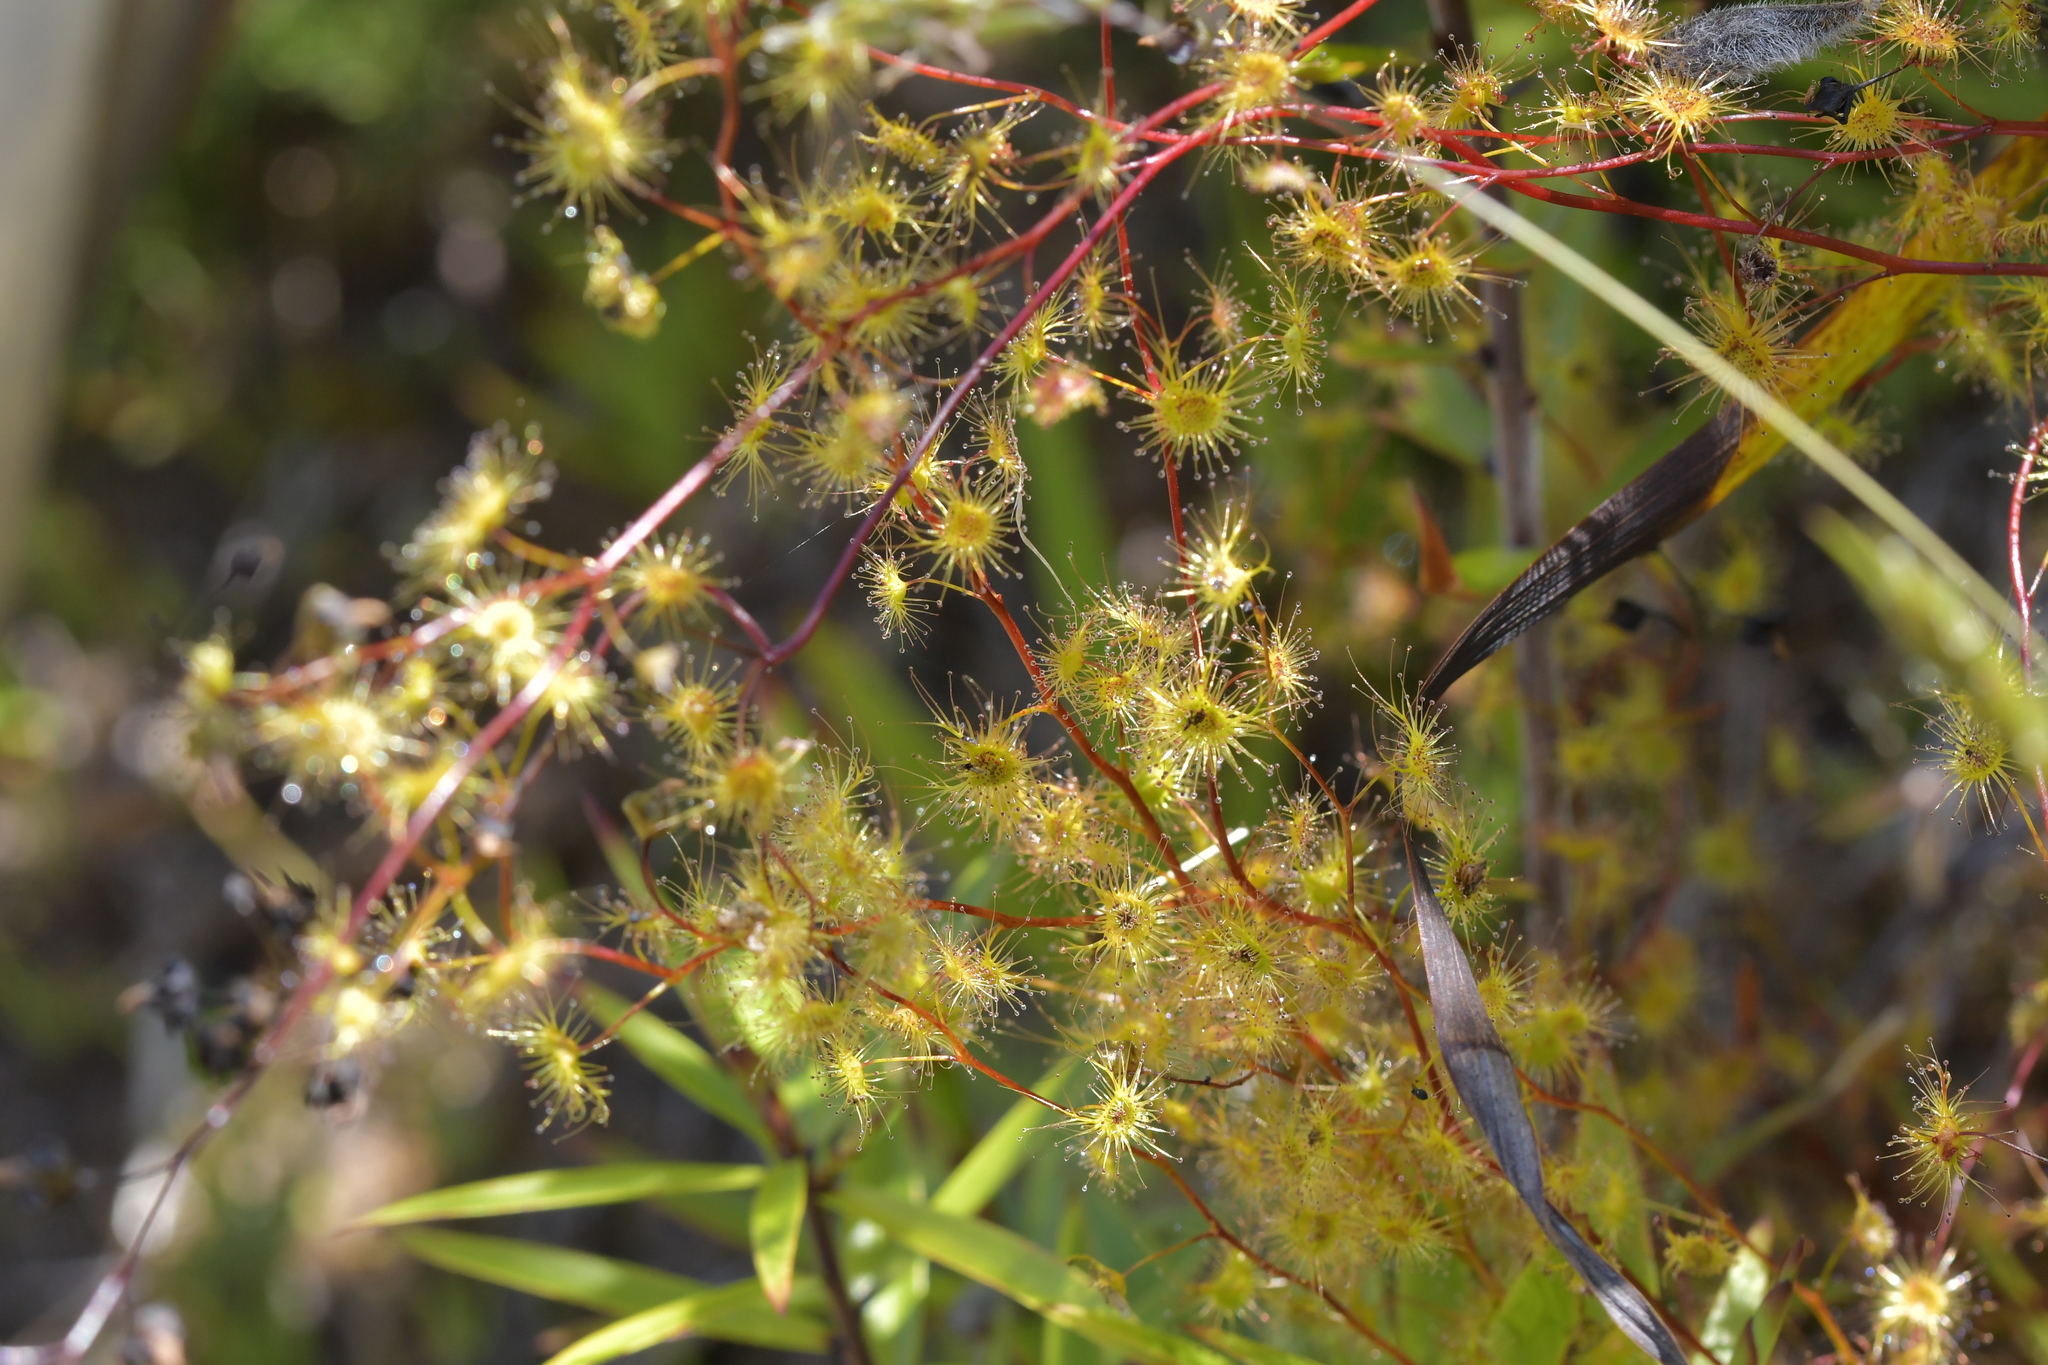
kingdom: Plantae
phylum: Tracheophyta
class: Magnoliopsida
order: Caryophyllales
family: Droseraceae
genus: Drosera
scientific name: Drosera peltata
